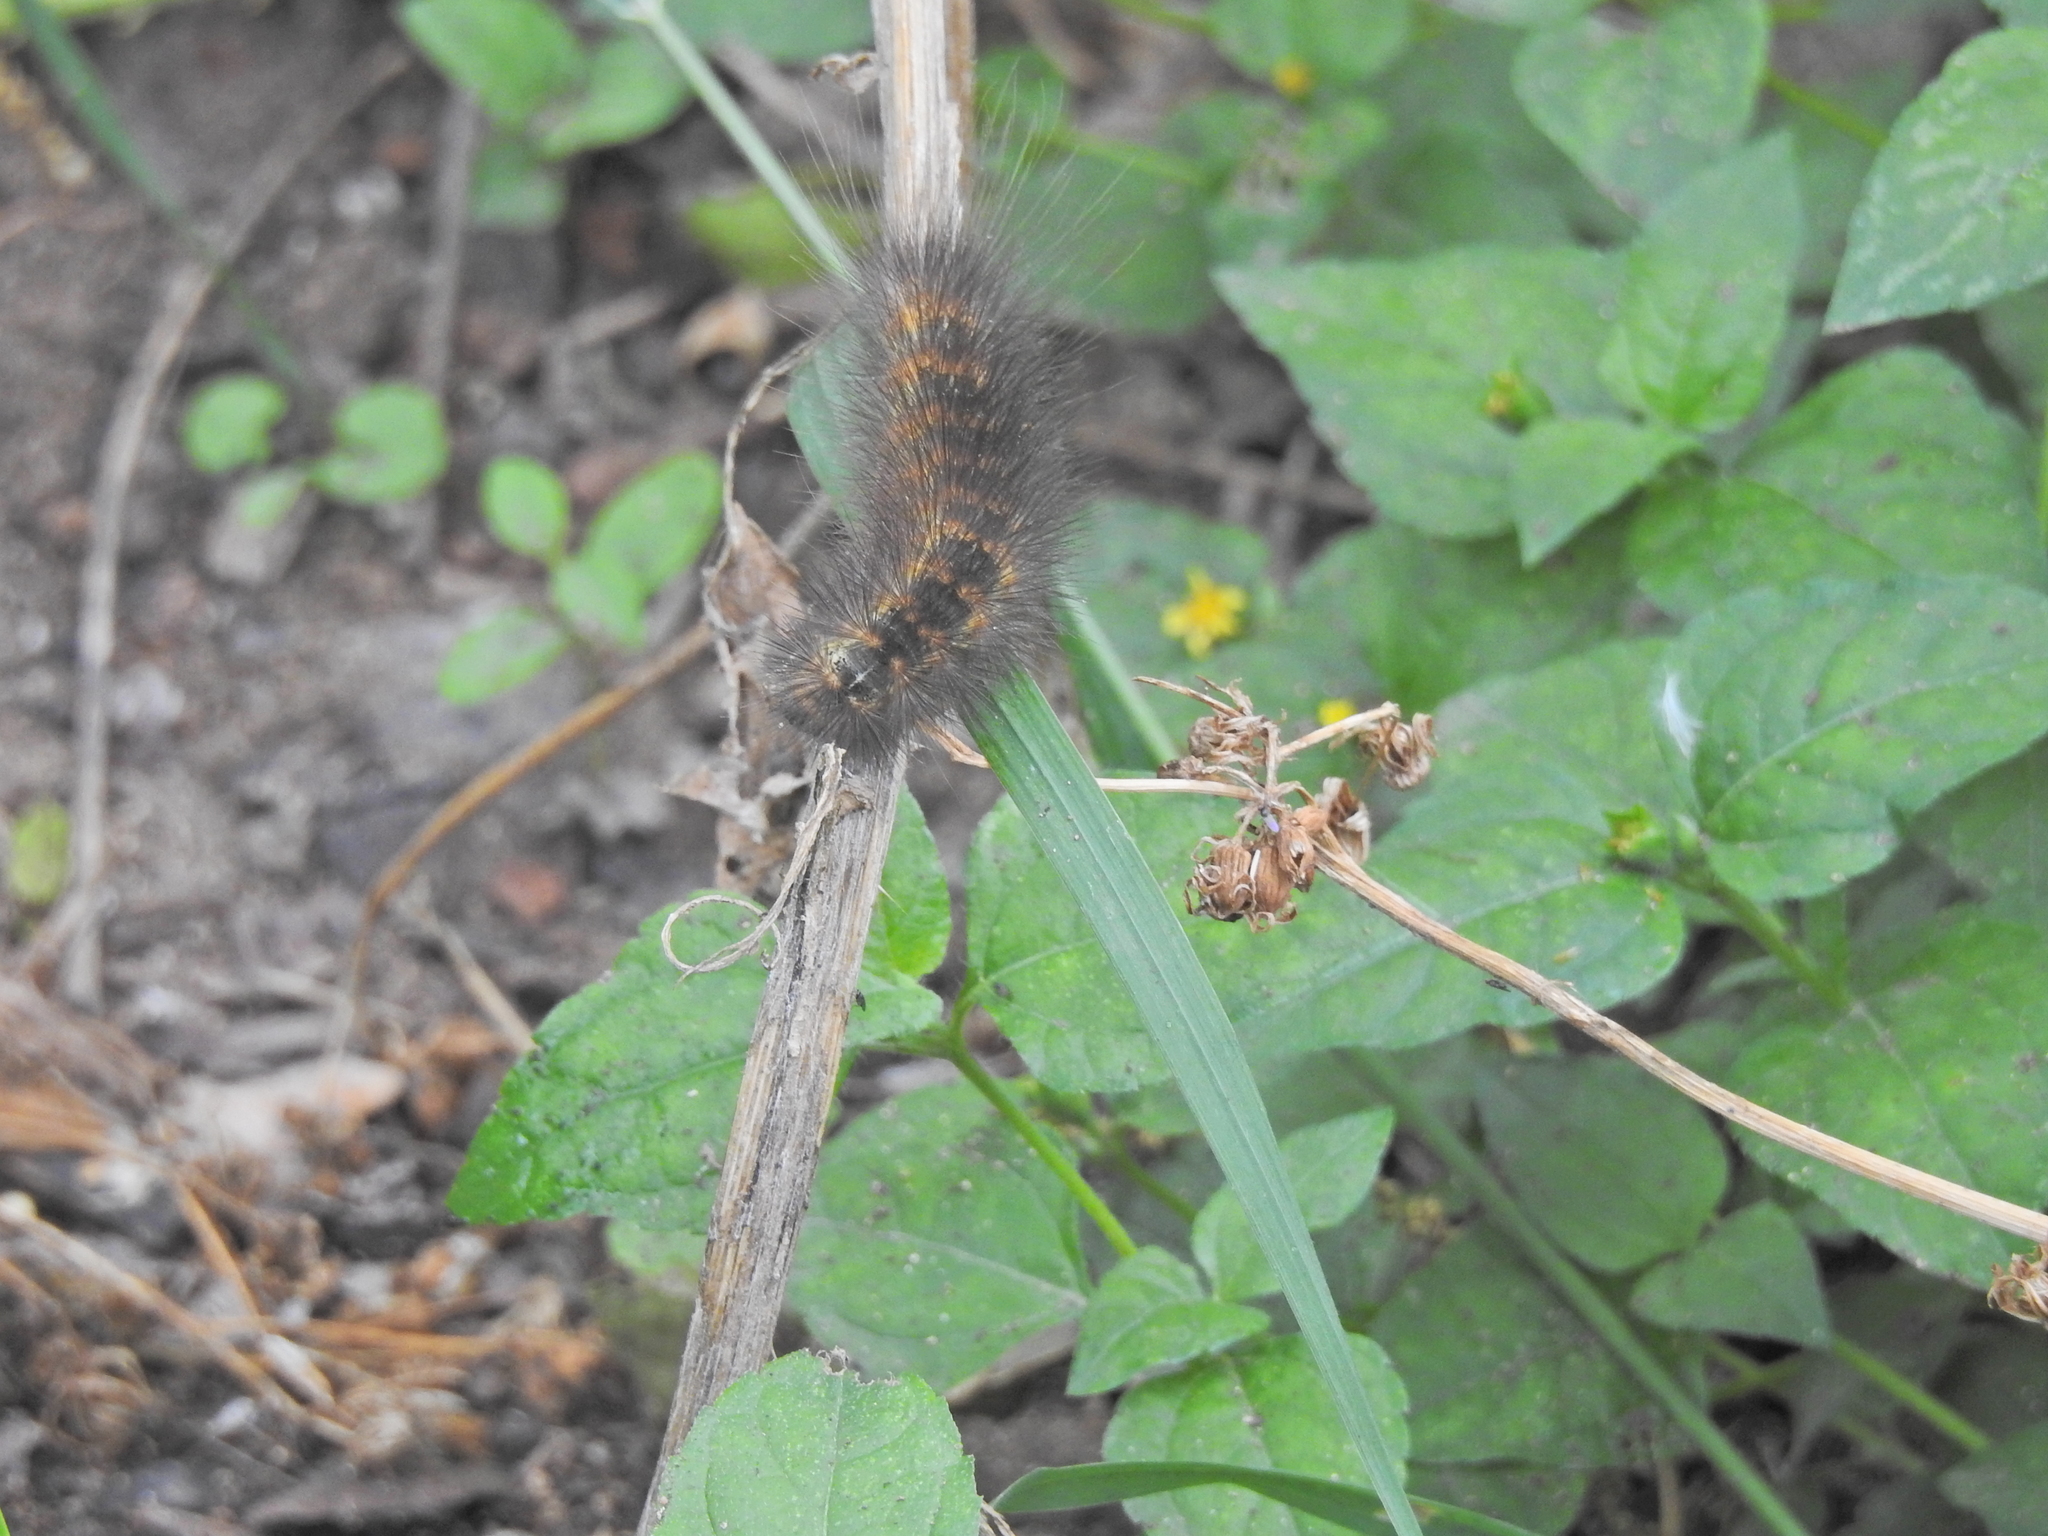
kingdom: Animalia
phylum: Arthropoda
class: Insecta
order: Lepidoptera
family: Erebidae
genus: Estigmene
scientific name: Estigmene acrea
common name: Salt marsh moth
